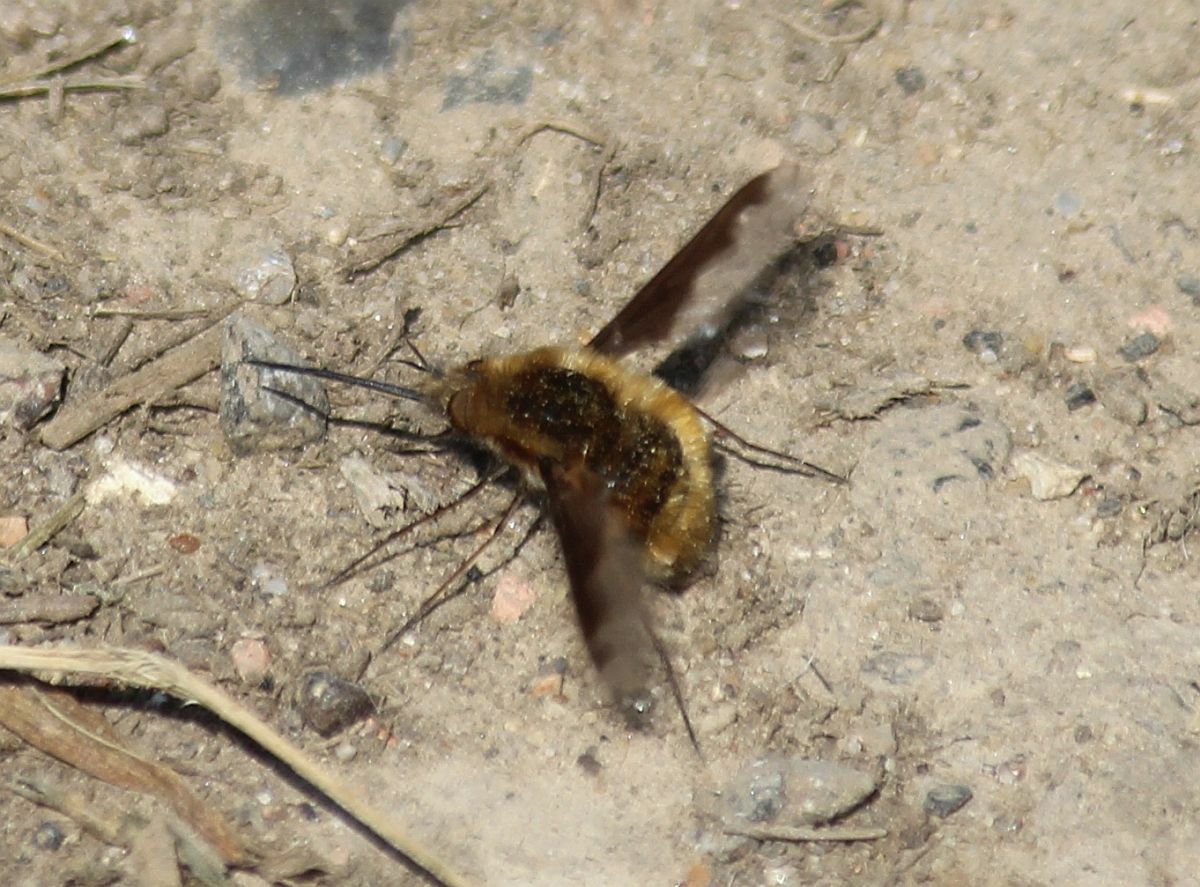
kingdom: Animalia
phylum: Arthropoda
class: Insecta
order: Diptera
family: Bombyliidae
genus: Bombylius
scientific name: Bombylius major
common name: Bee fly
